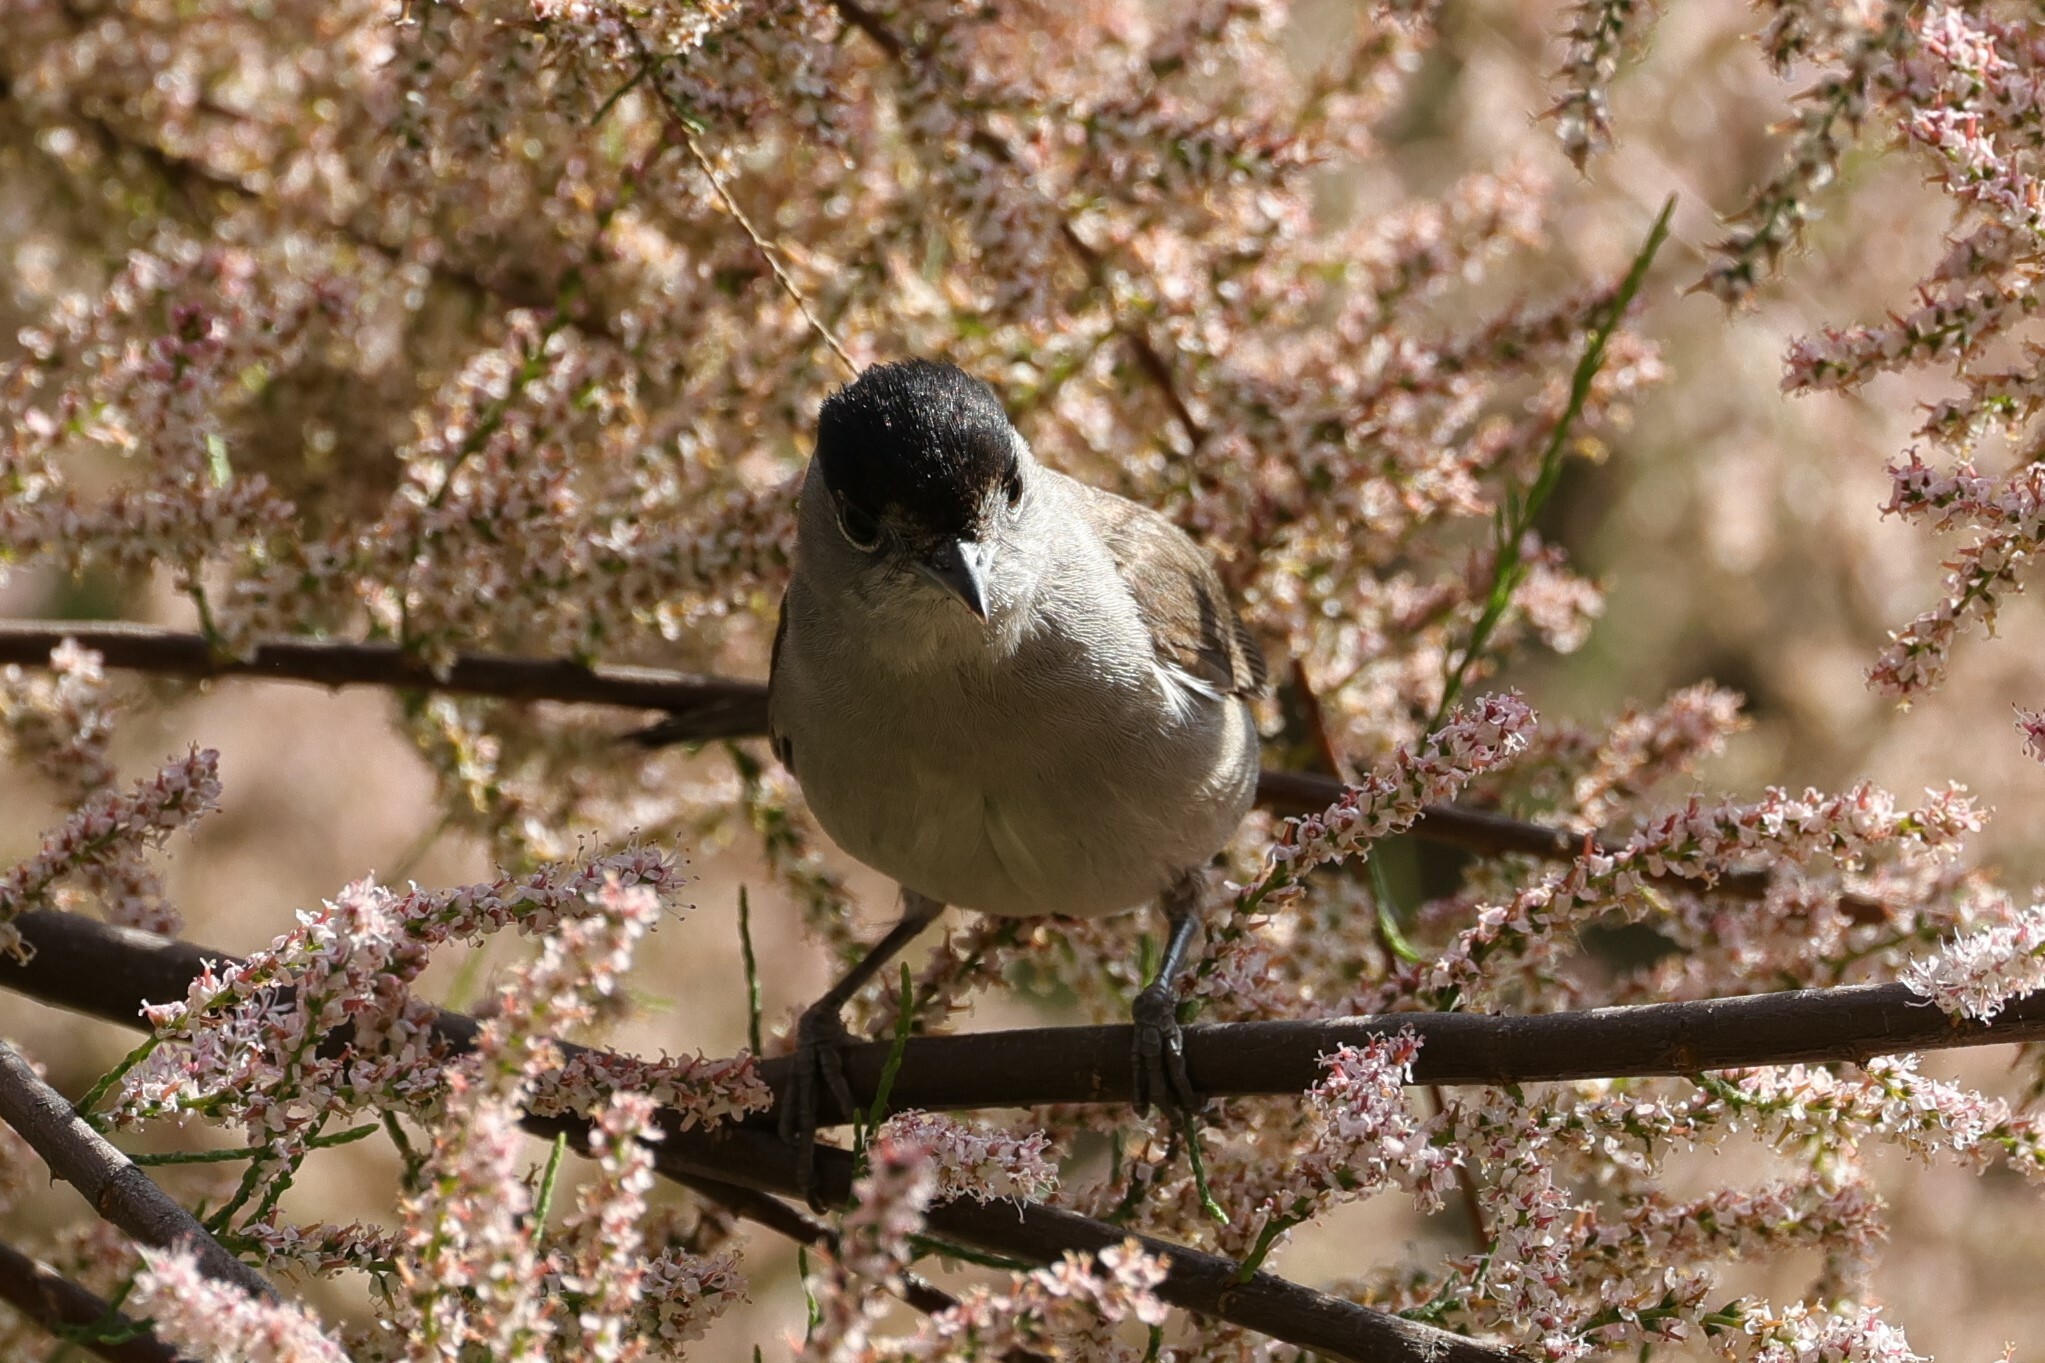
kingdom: Animalia
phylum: Chordata
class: Aves
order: Passeriformes
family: Sylviidae
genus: Sylvia
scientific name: Sylvia atricapilla
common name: Eurasian blackcap
